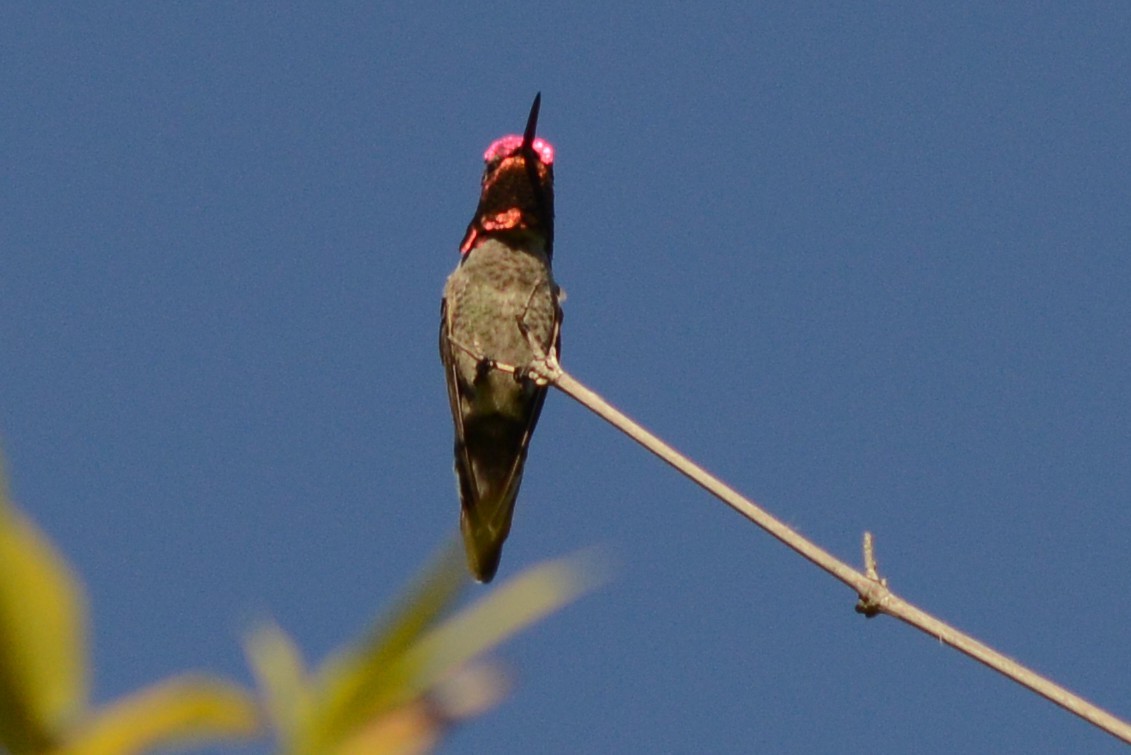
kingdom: Animalia
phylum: Chordata
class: Aves
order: Apodiformes
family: Trochilidae
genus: Calypte
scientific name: Calypte anna
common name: Anna's hummingbird
